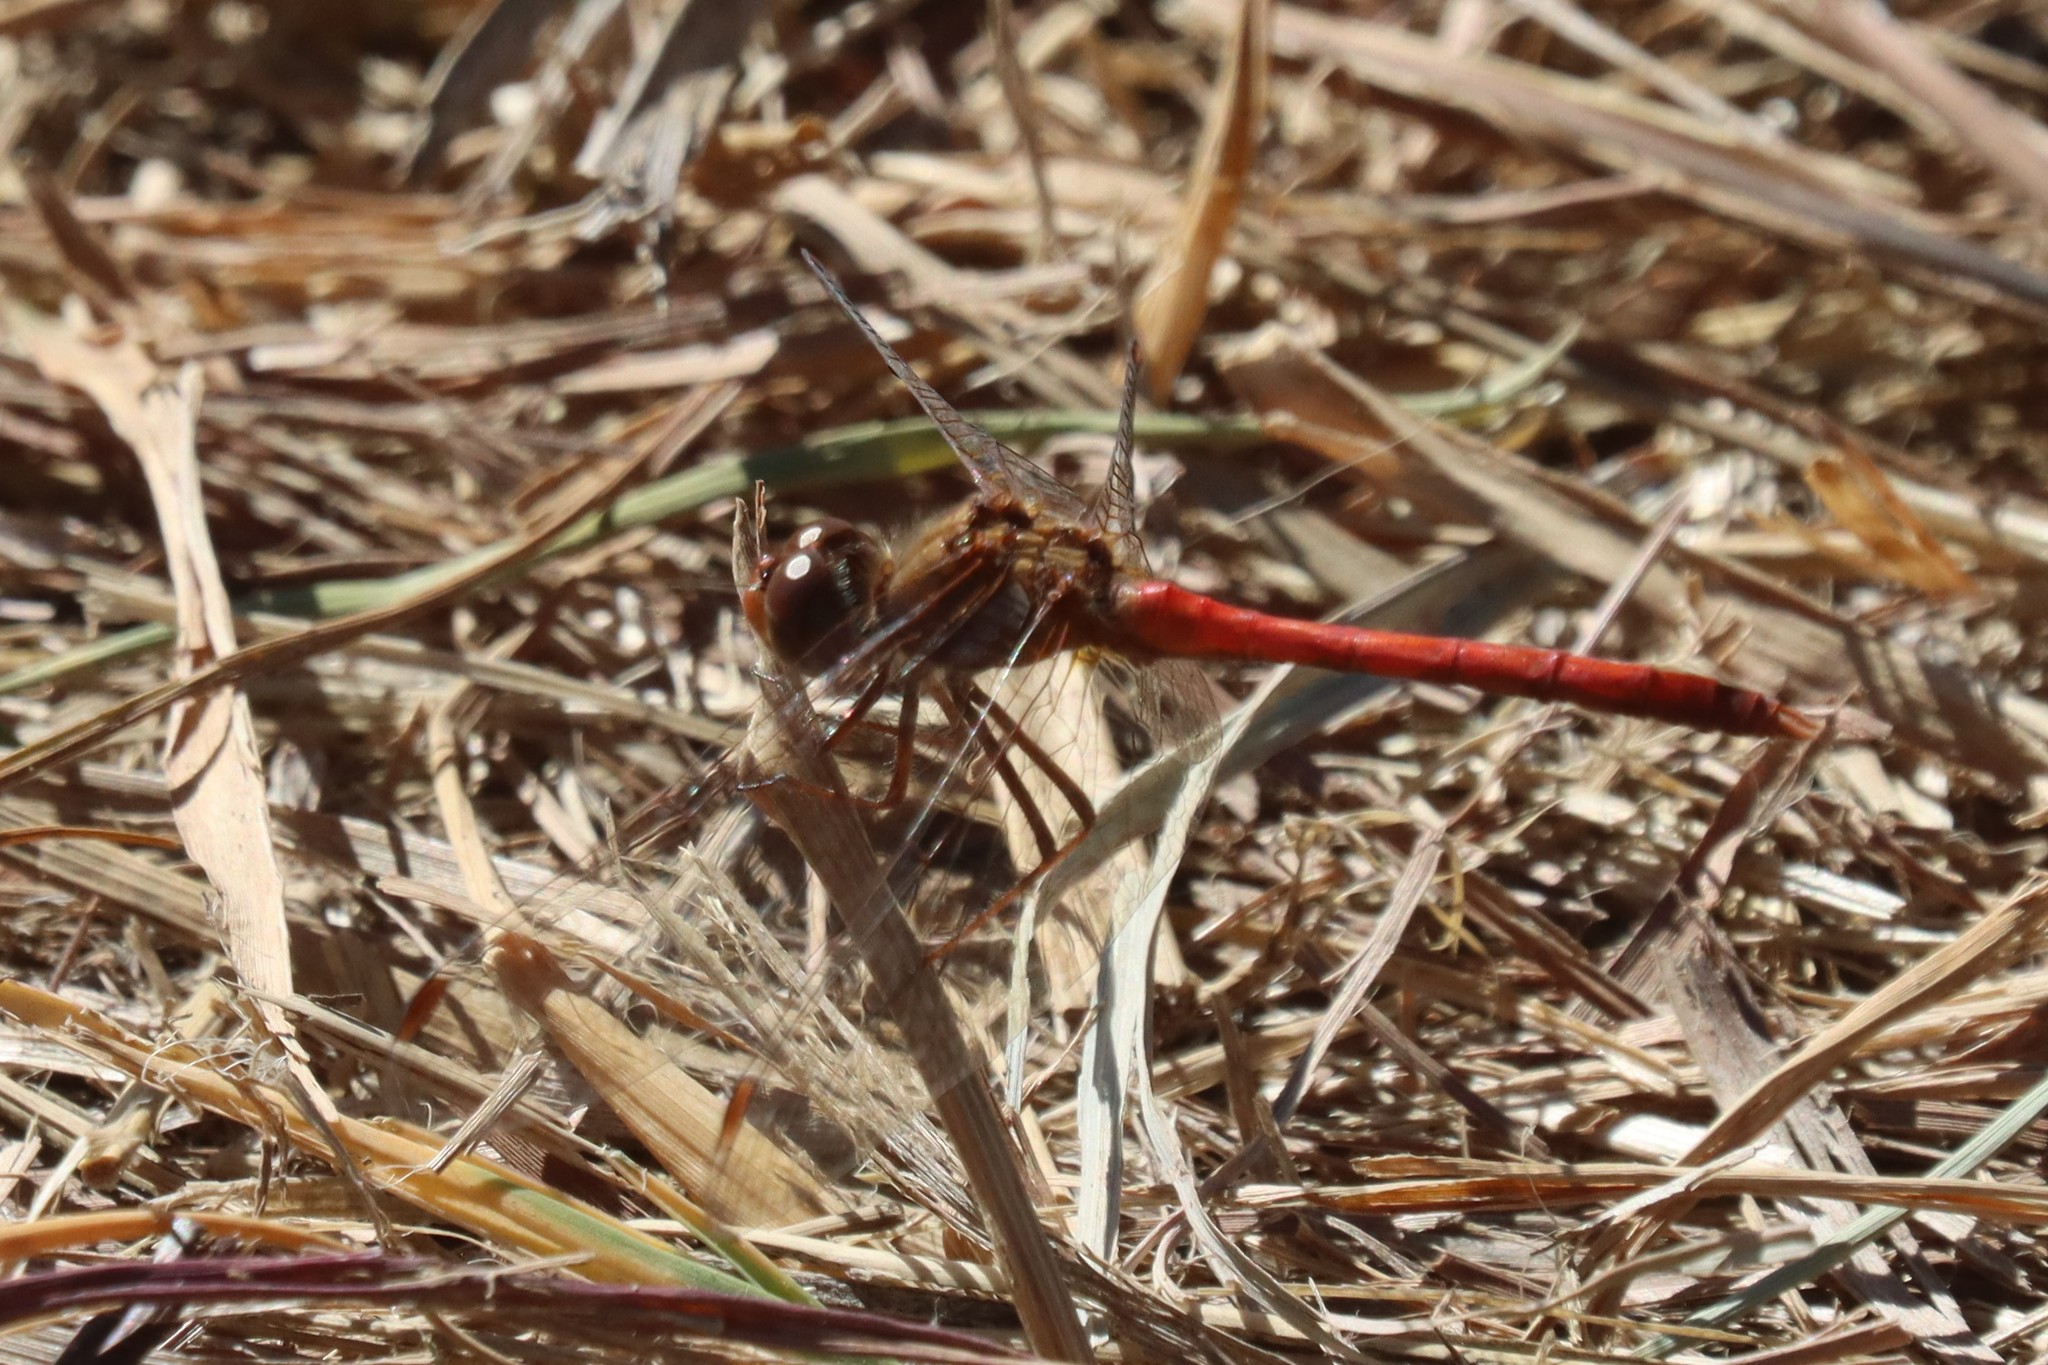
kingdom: Animalia
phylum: Arthropoda
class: Insecta
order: Odonata
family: Libellulidae
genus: Sympetrum
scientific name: Sympetrum vicinum
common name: Autumn meadowhawk
